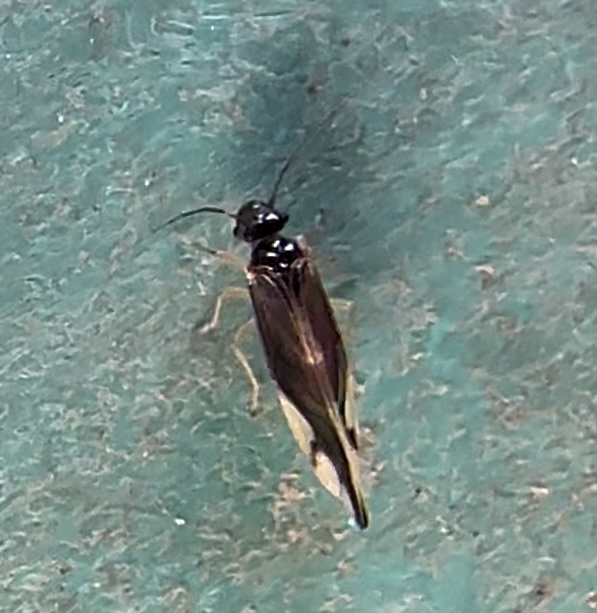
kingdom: Animalia
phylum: Arthropoda
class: Insecta
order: Psocodea
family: Caeciliusidae
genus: Caecilius
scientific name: Caecilius fuscopterus
